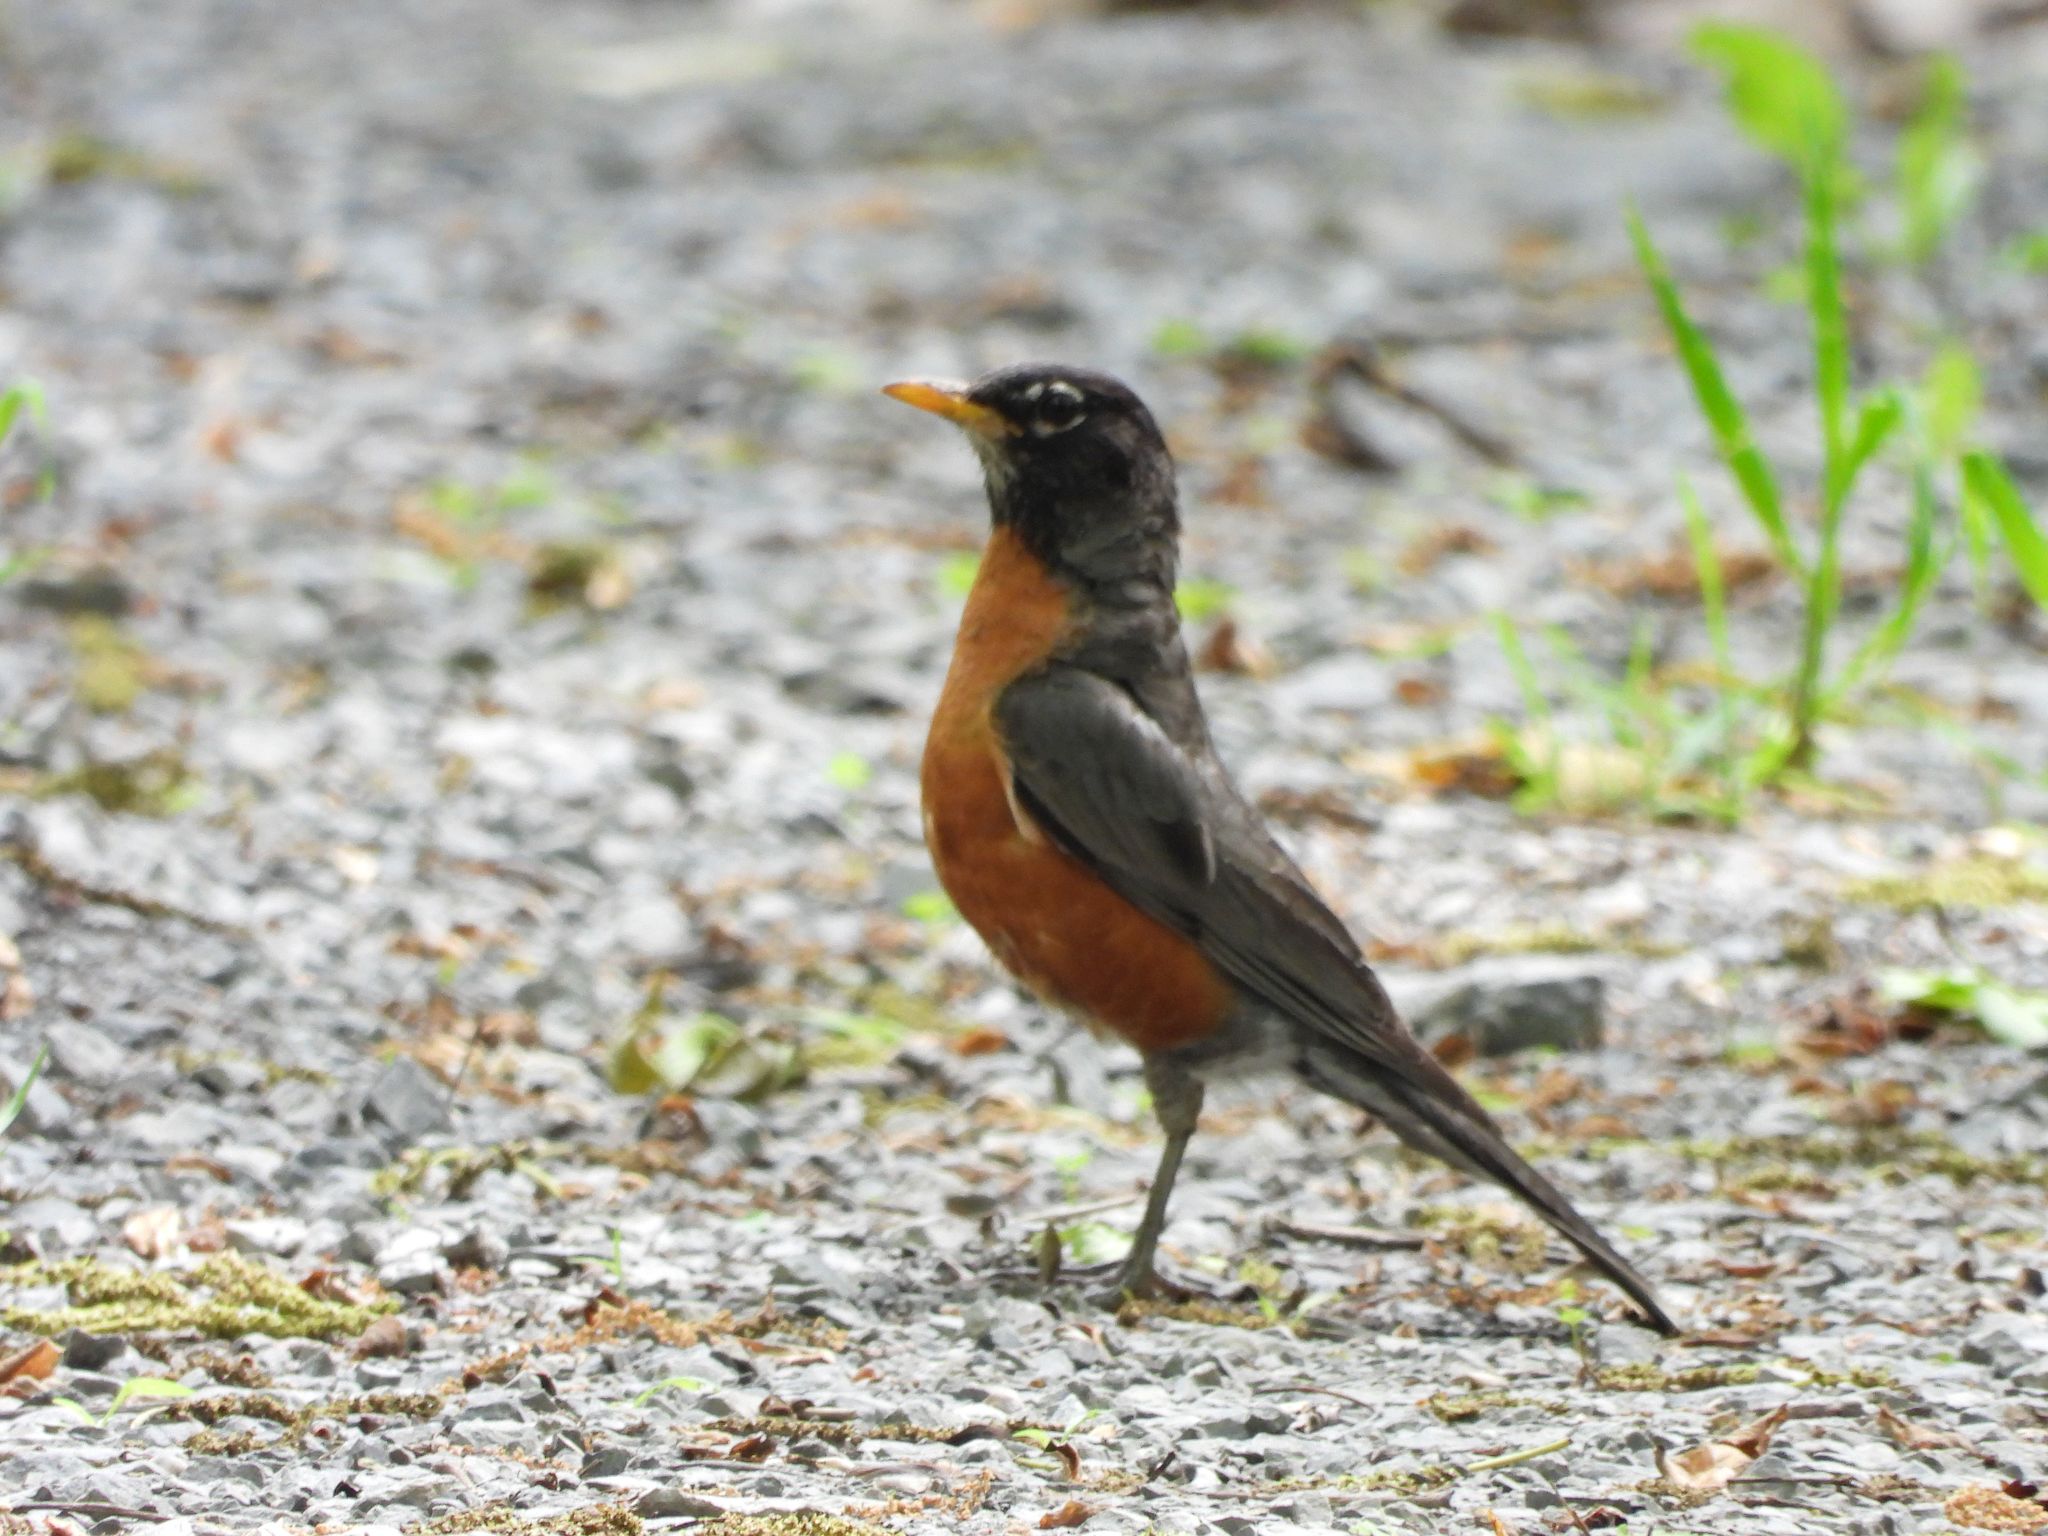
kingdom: Animalia
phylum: Chordata
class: Aves
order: Passeriformes
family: Turdidae
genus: Turdus
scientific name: Turdus migratorius
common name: American robin
